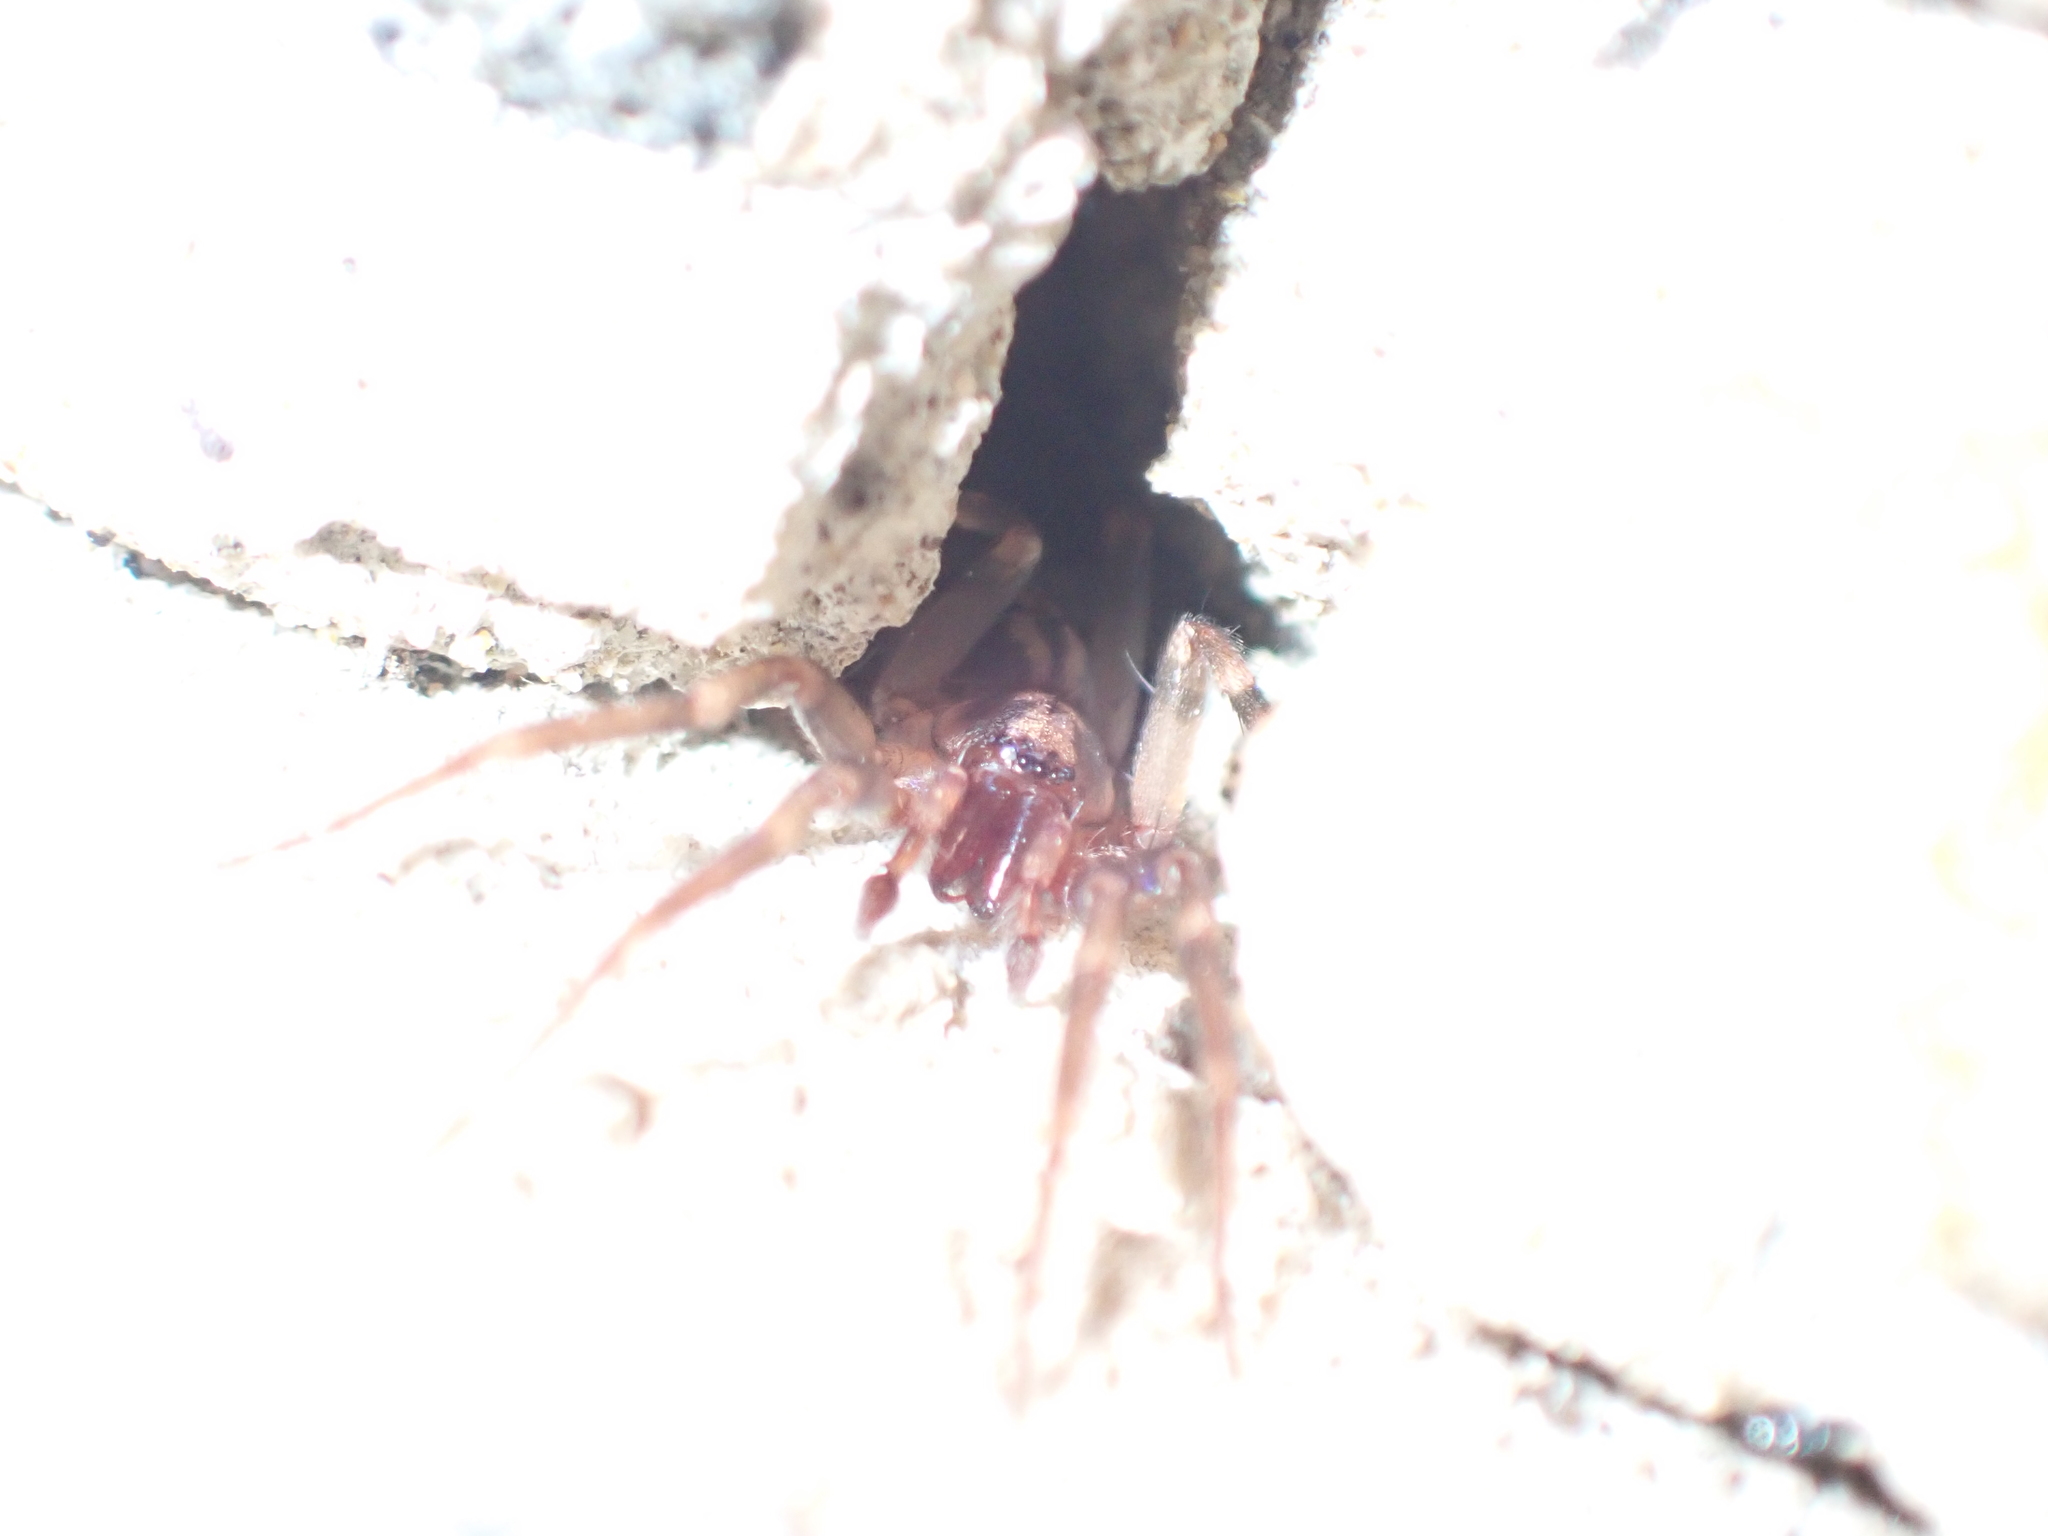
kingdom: Animalia
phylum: Arthropoda
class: Arachnida
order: Araneae
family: Liocranidae
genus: Liocranum
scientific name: Liocranum rupicola
